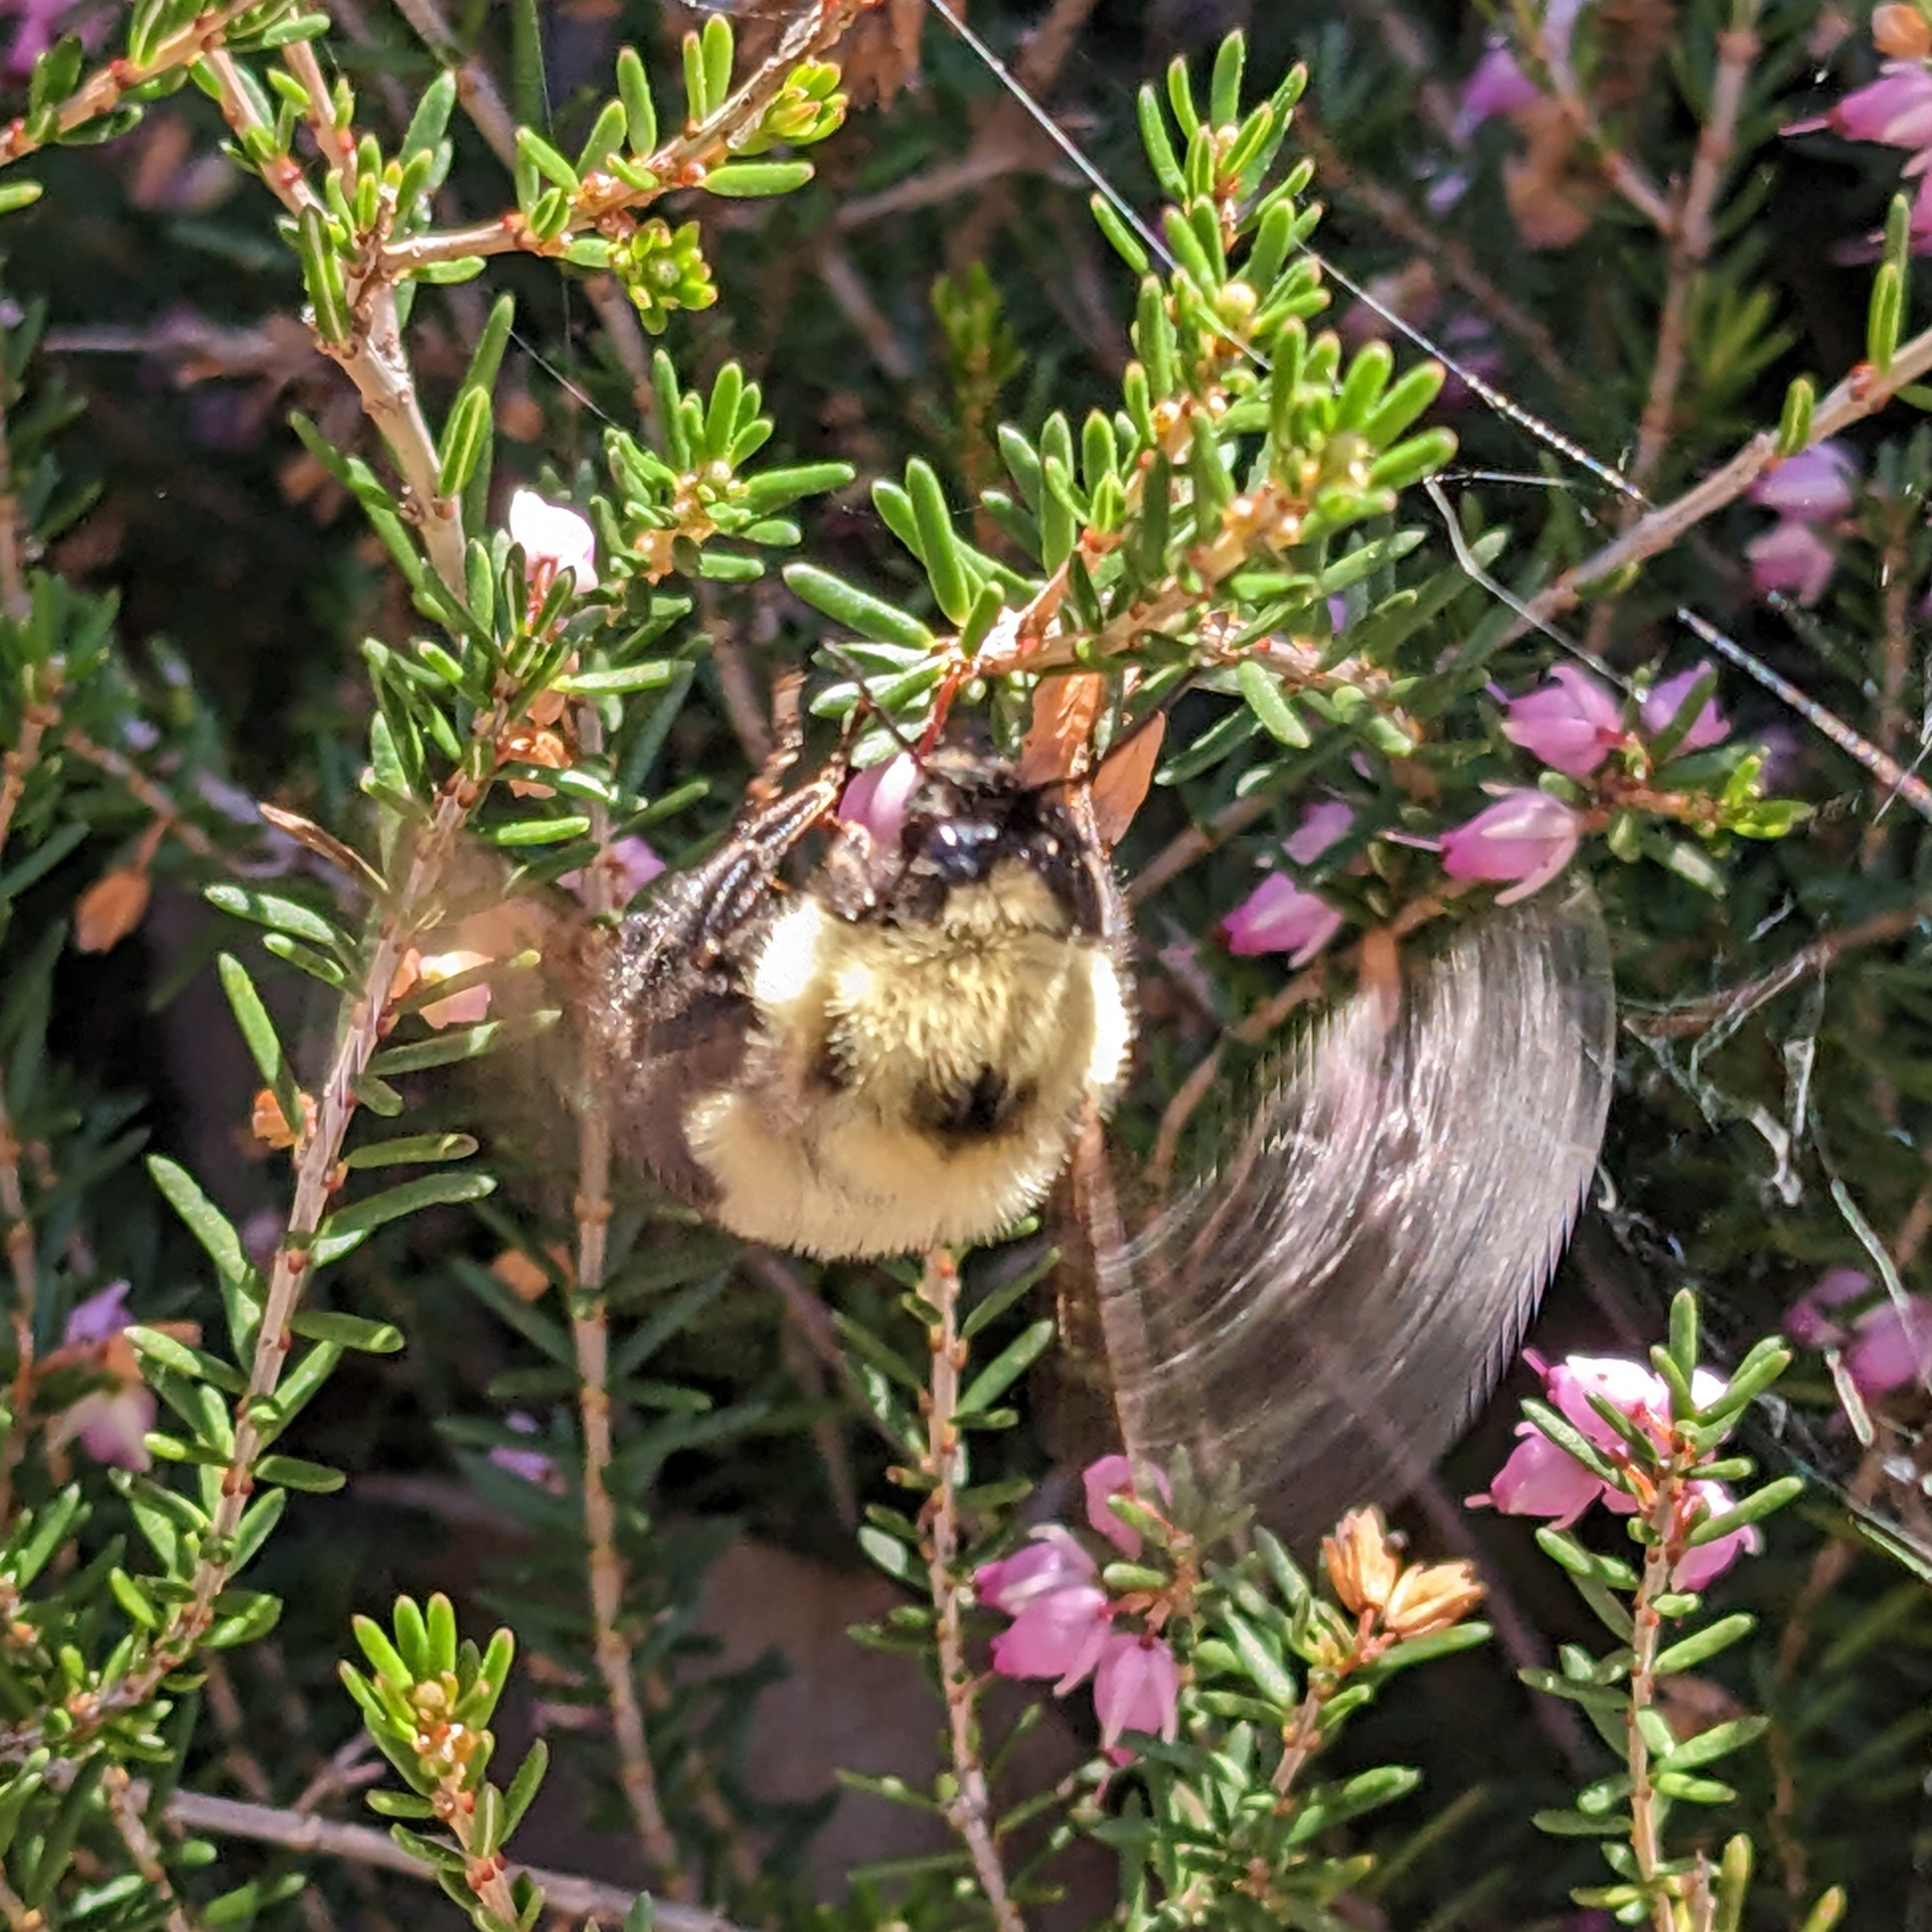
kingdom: Animalia
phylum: Arthropoda
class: Insecta
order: Hymenoptera
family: Apidae
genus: Bombus
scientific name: Bombus bimaculatus
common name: Two-spotted bumble bee
